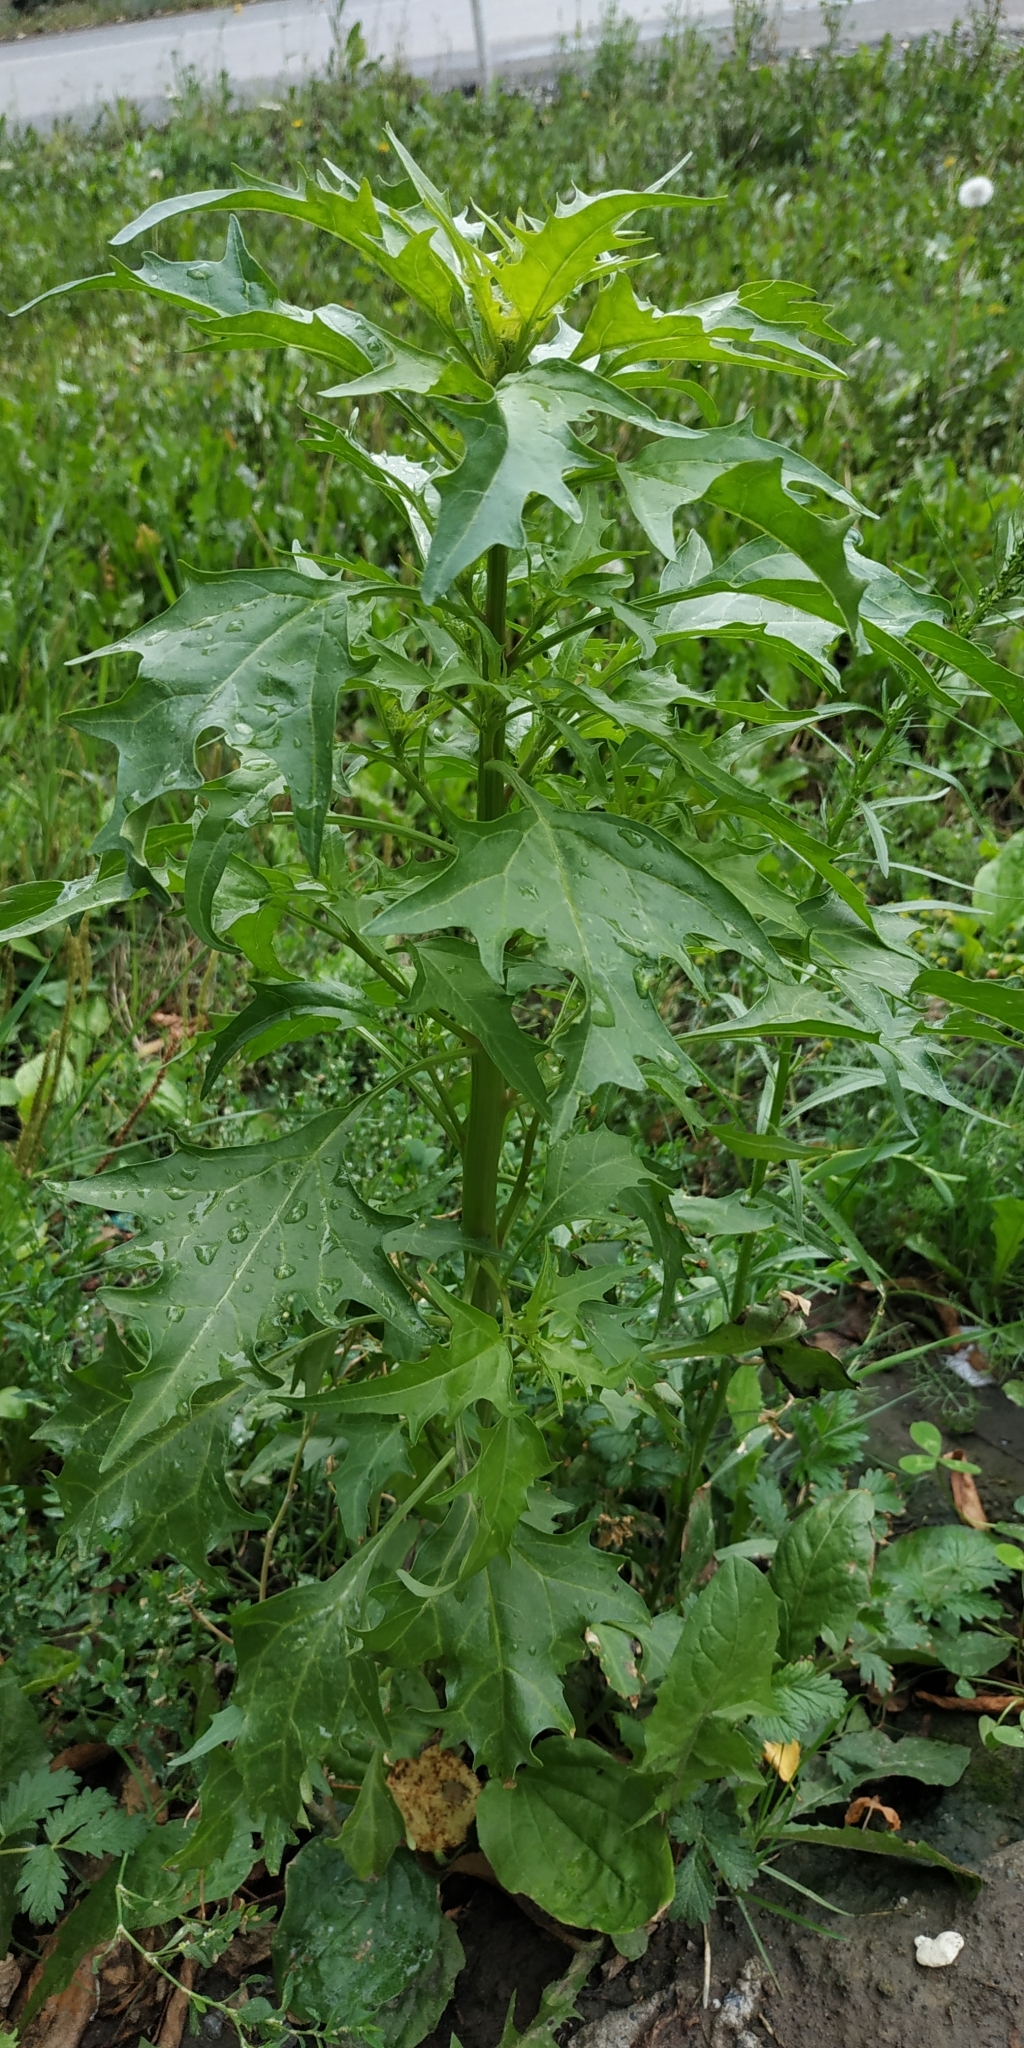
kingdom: Plantae
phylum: Tracheophyta
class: Magnoliopsida
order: Caryophyllales
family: Amaranthaceae
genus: Oxybasis
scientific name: Oxybasis rubra
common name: Red goosefoot
